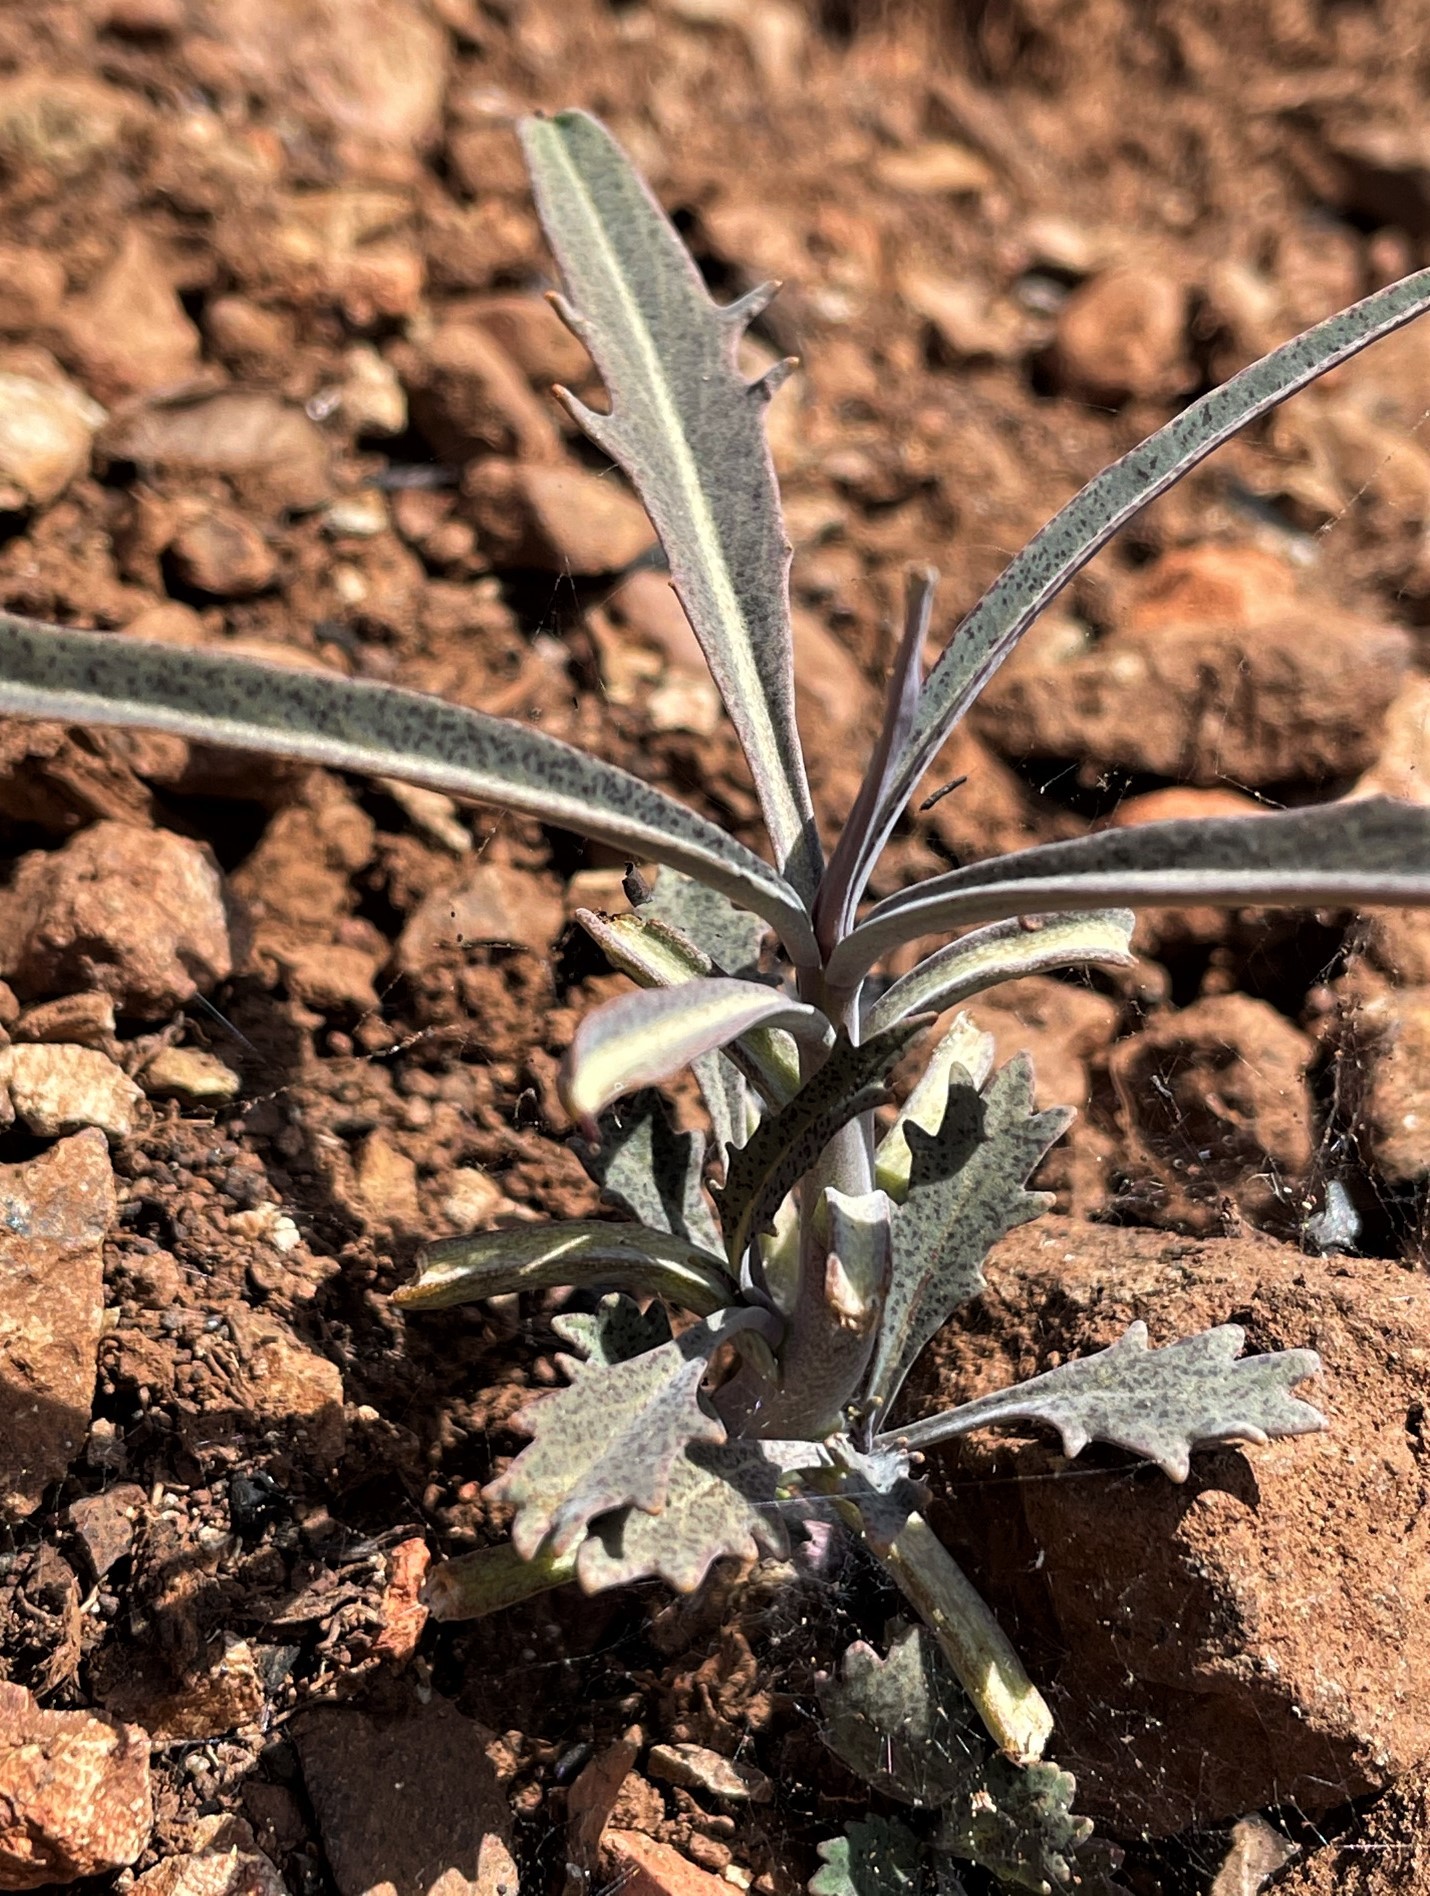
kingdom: Plantae
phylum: Tracheophyta
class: Magnoliopsida
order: Brassicales
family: Brassicaceae
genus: Streptanthus
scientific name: Streptanthus barbiger
